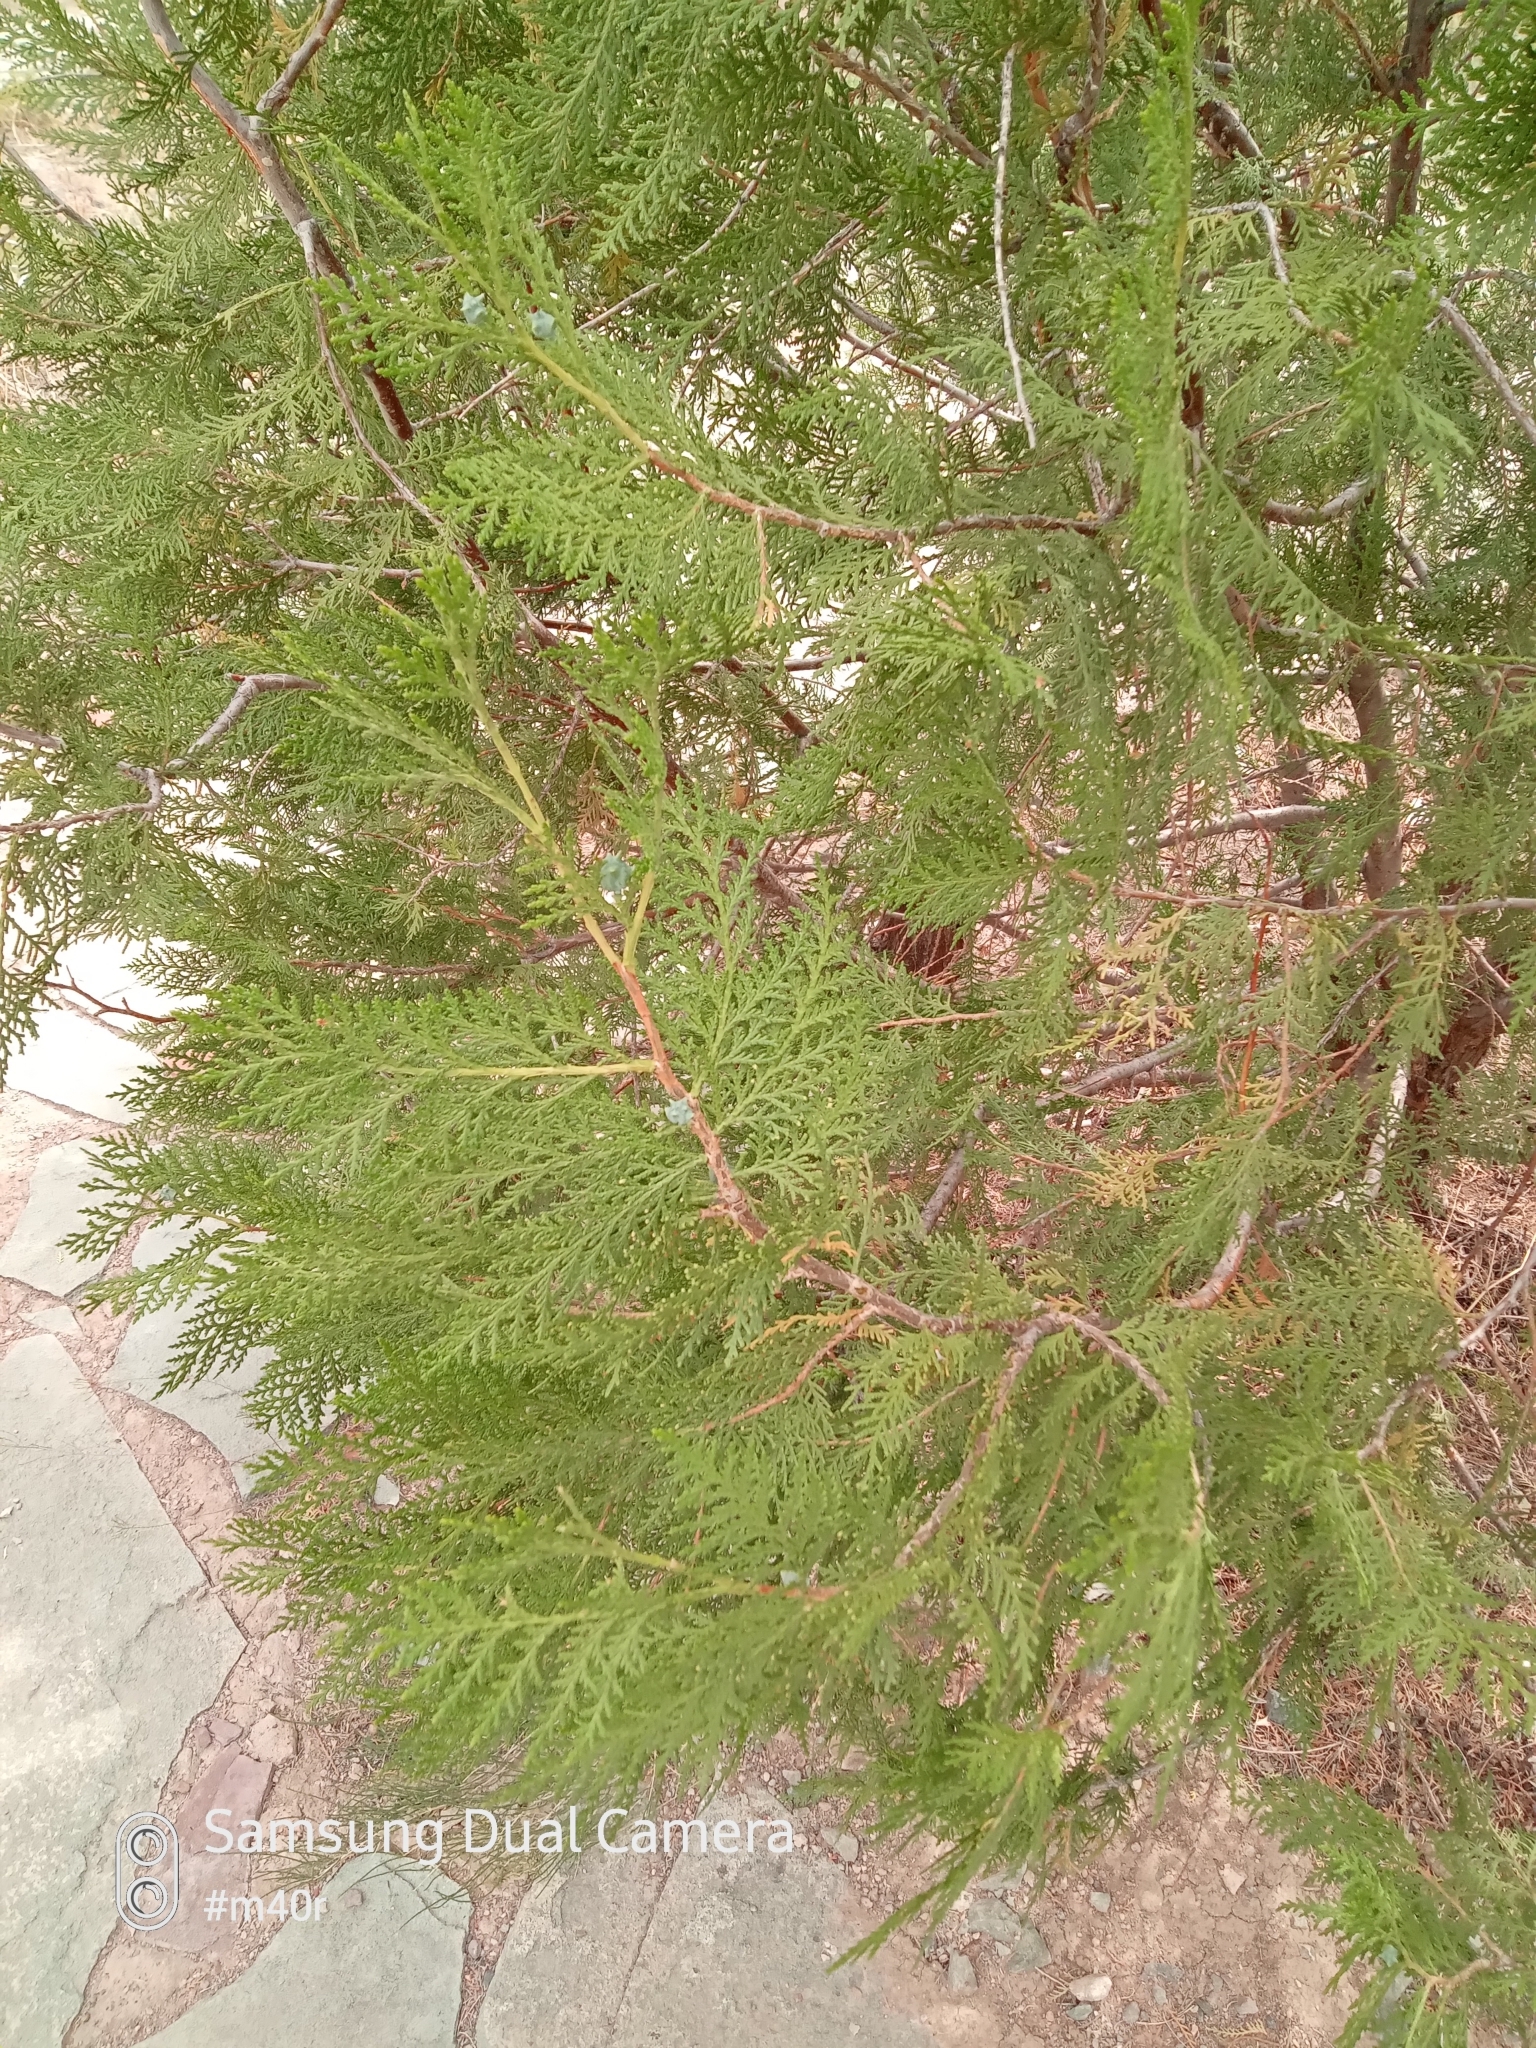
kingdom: Plantae
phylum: Tracheophyta
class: Pinopsida
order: Pinales
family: Cupressaceae
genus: Platycladus
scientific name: Platycladus orientalis
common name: Chinese thuja
